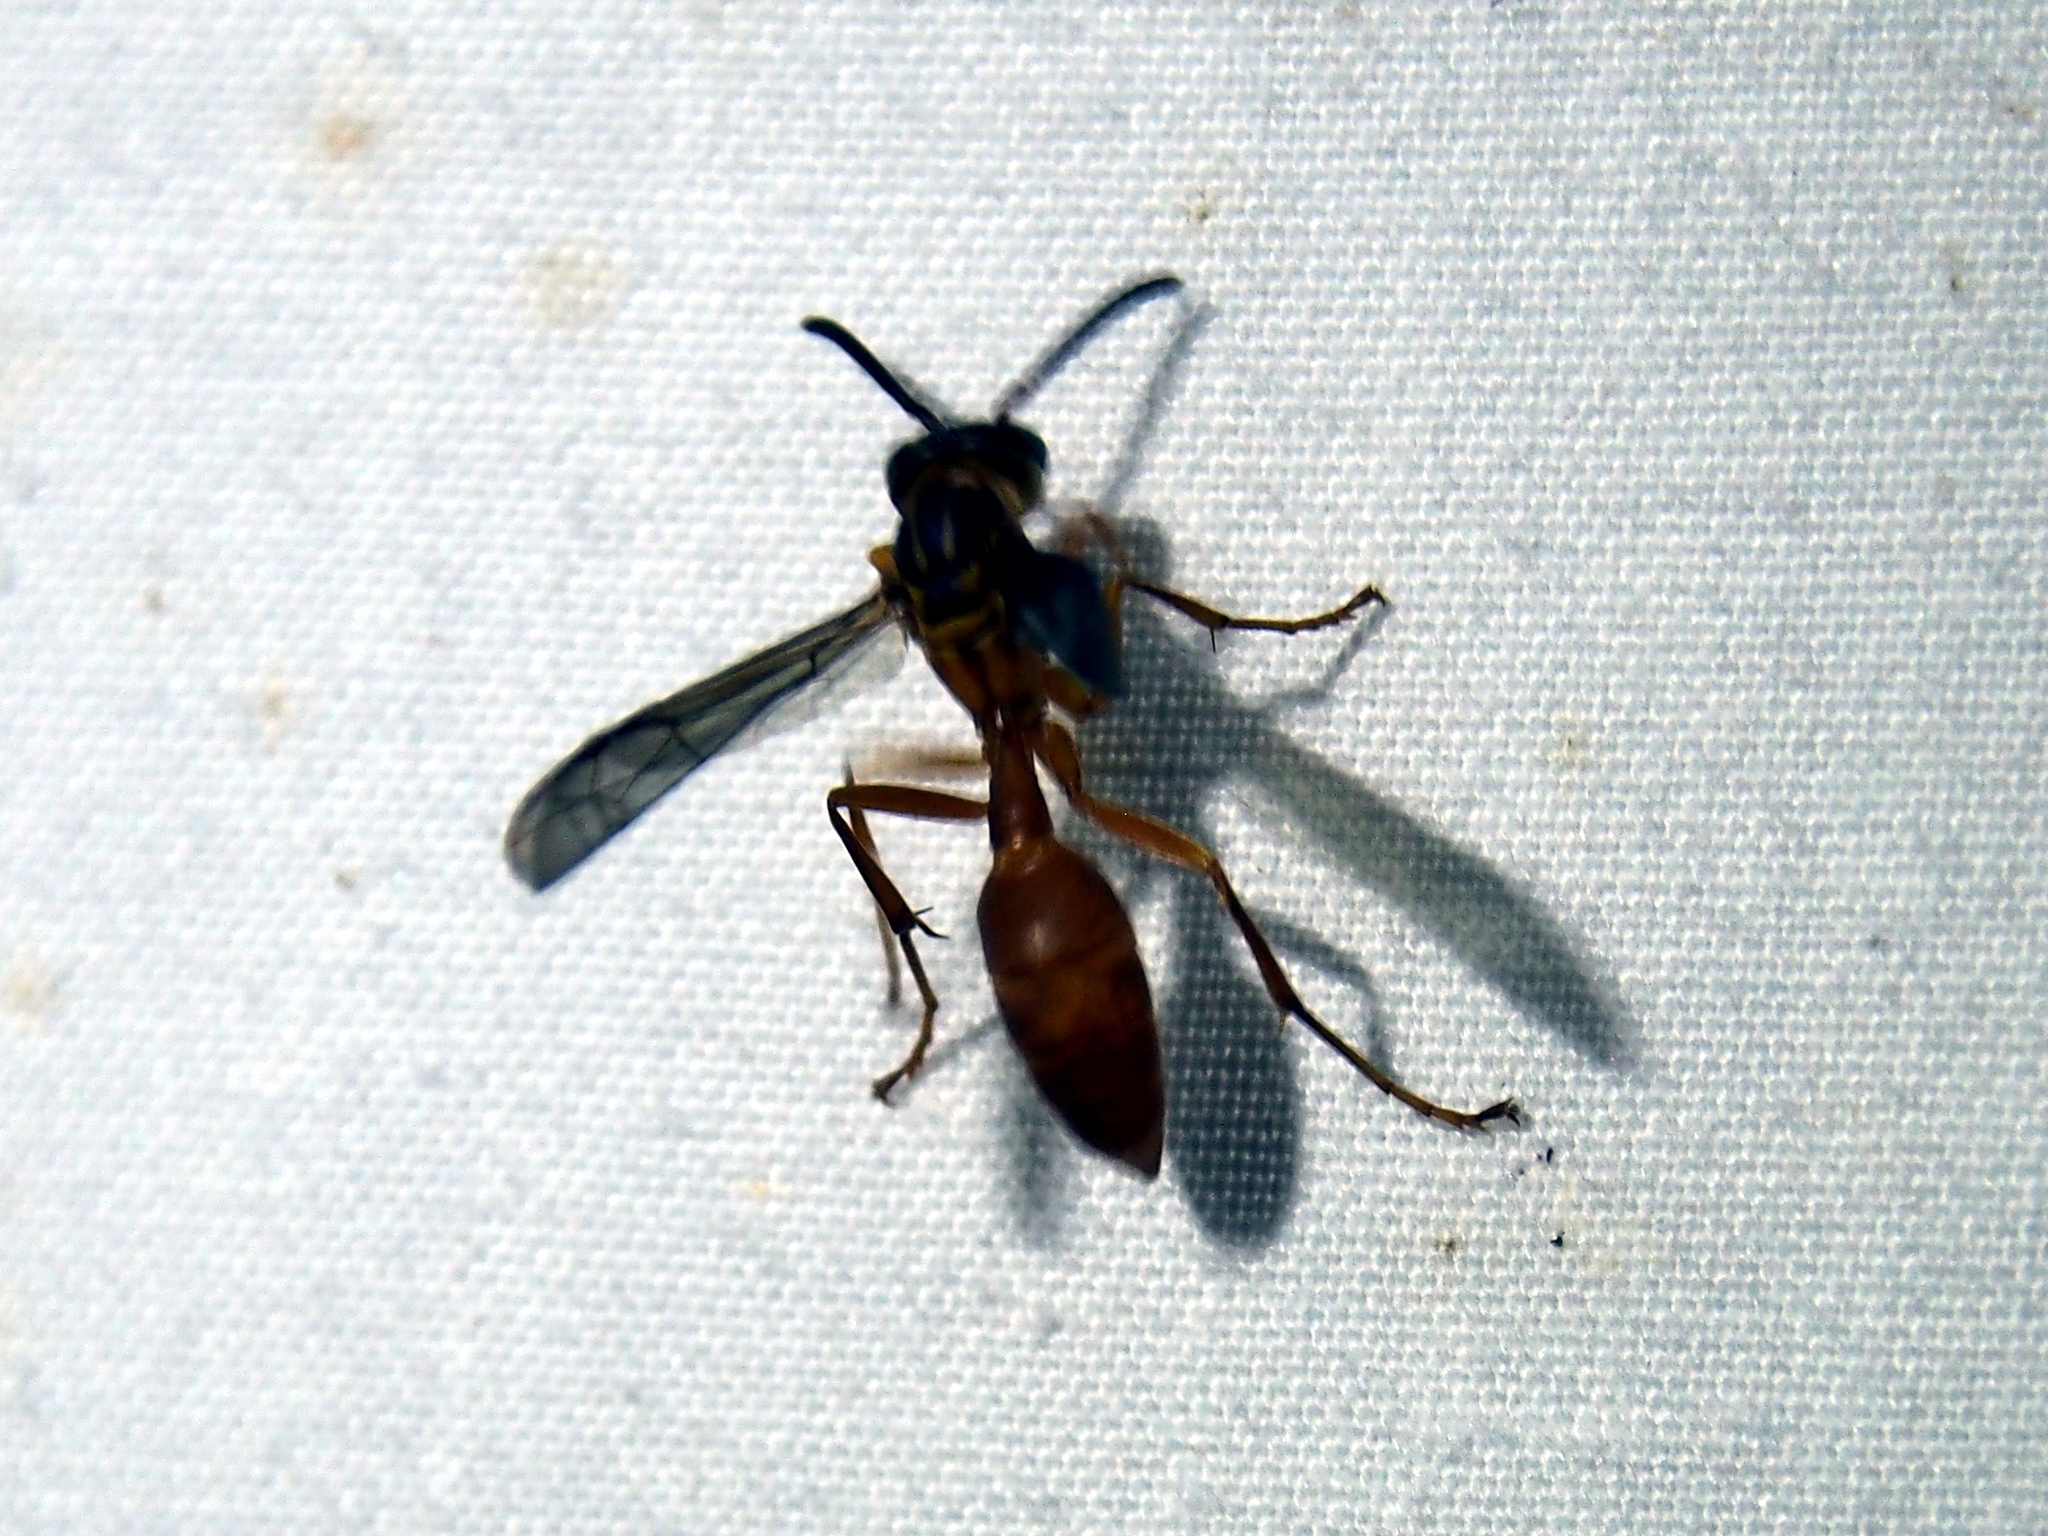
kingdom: Animalia
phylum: Arthropoda
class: Insecta
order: Hymenoptera
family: Vespidae
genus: Agelaia
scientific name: Agelaia centralis
